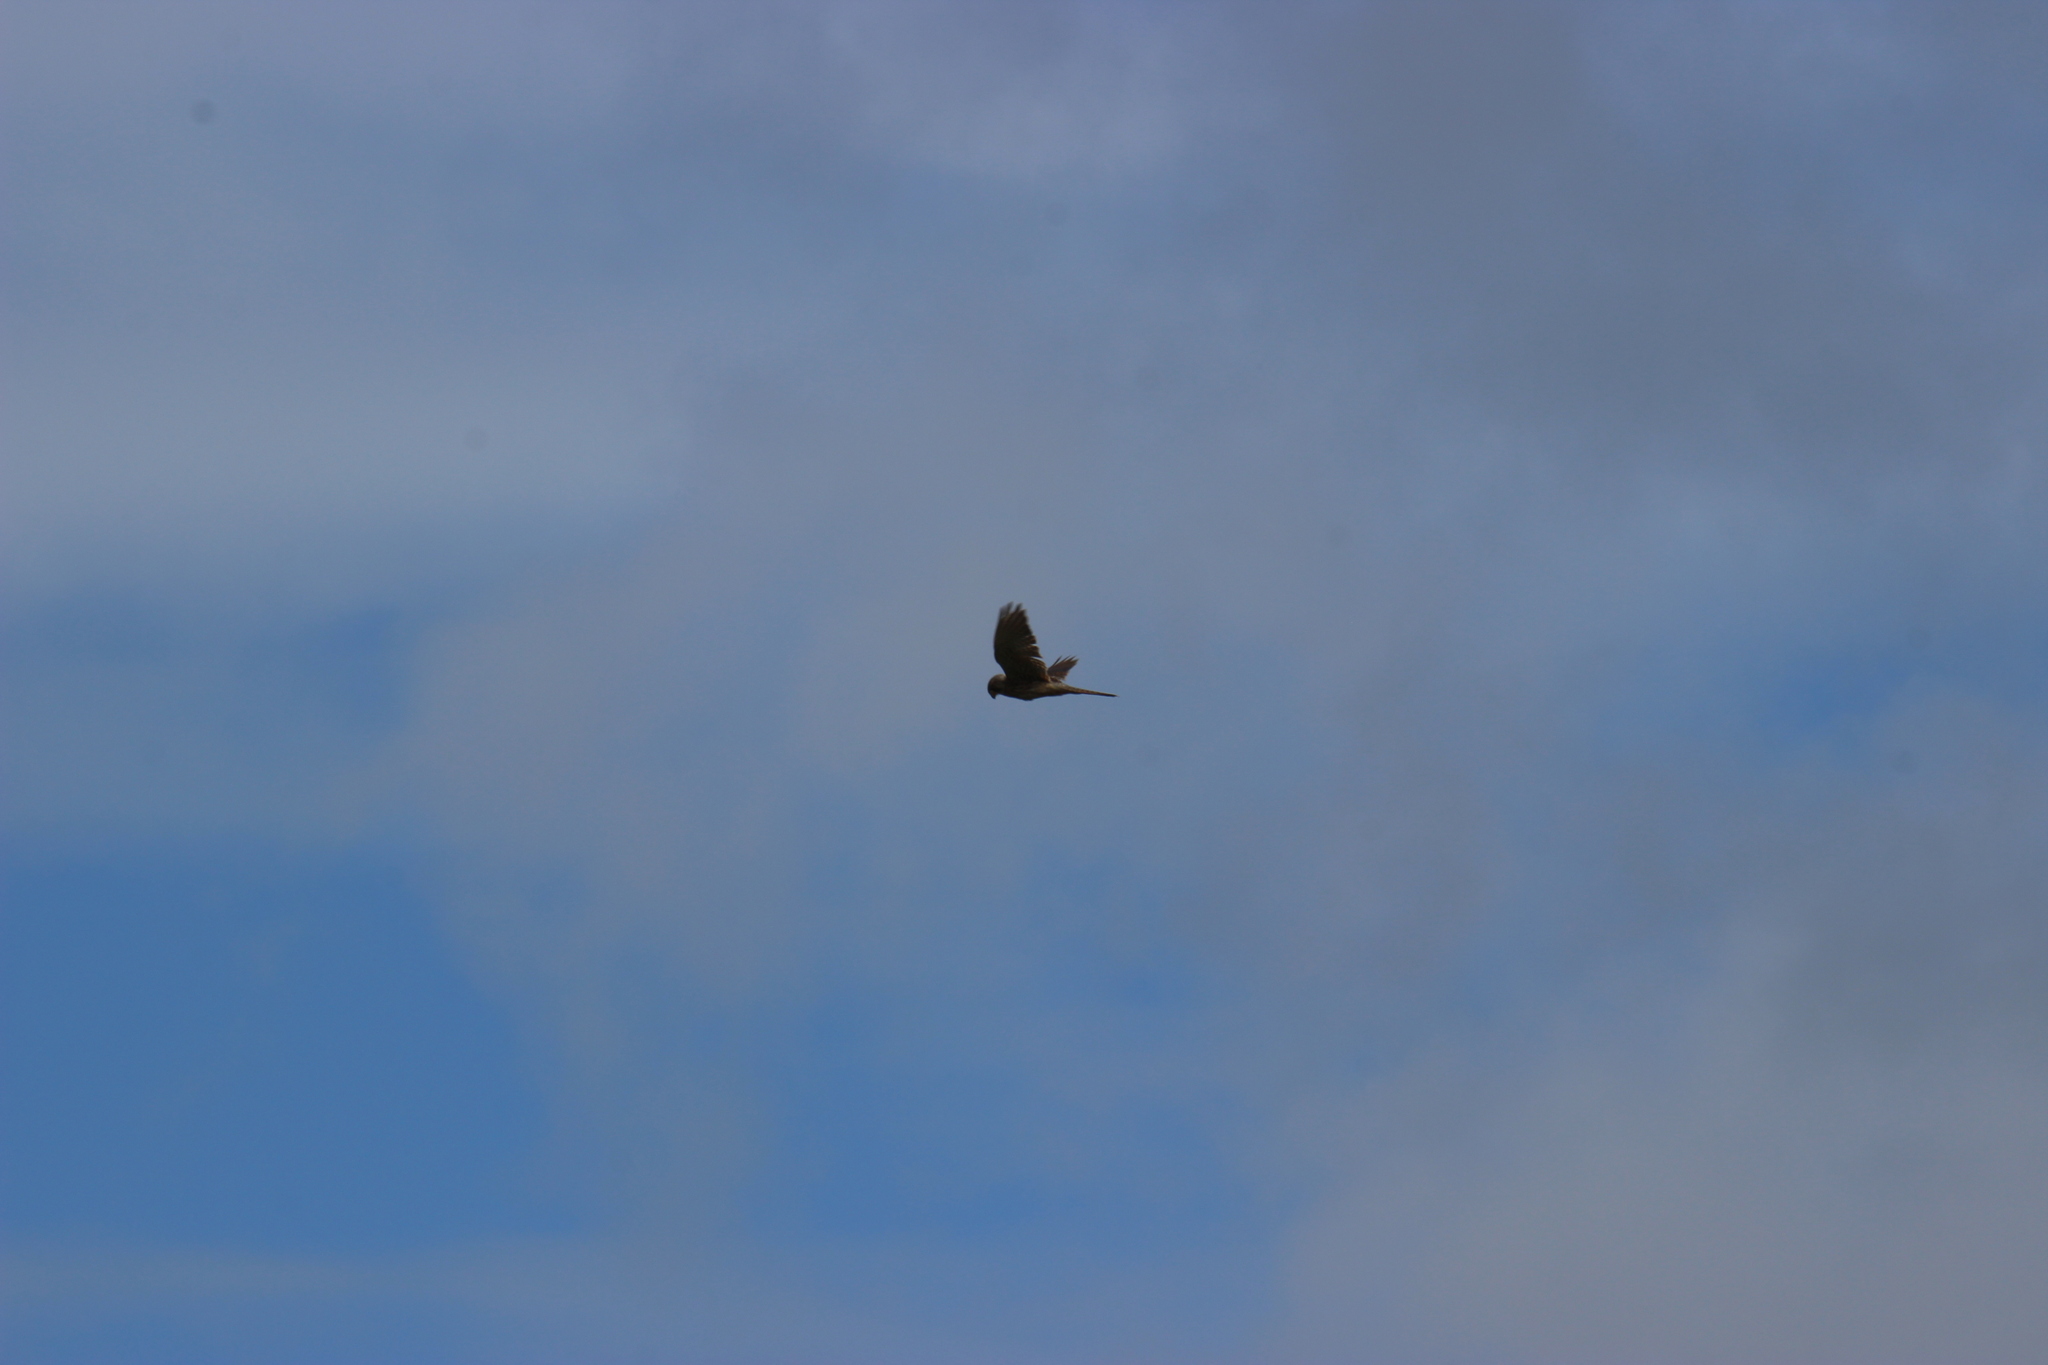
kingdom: Animalia
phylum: Chordata
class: Aves
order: Falconiformes
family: Falconidae
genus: Falco
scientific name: Falco tinnunculus
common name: Common kestrel
